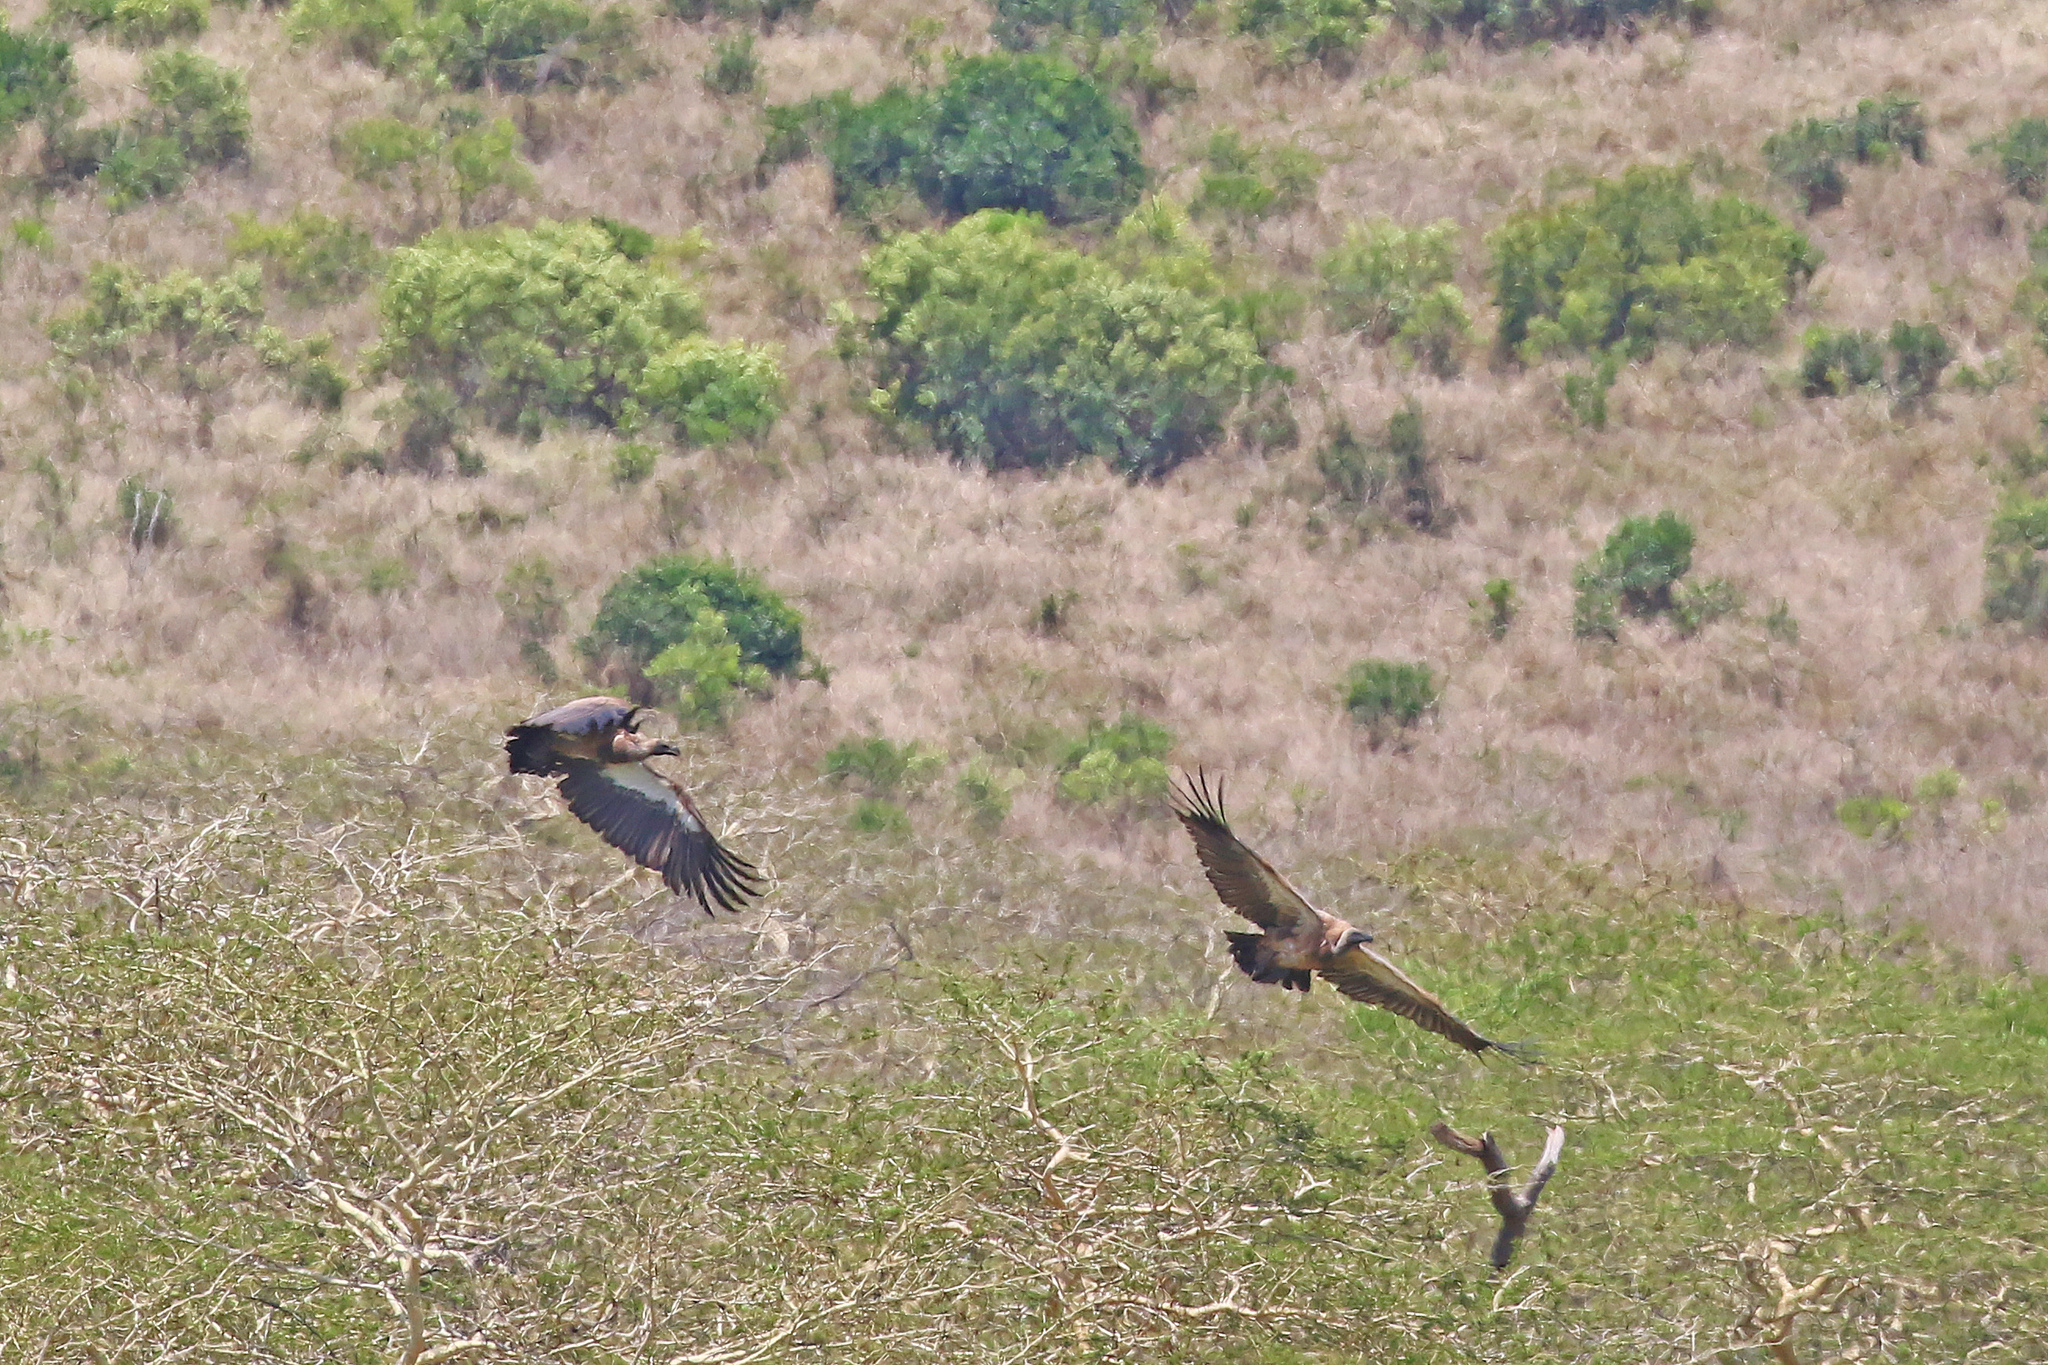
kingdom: Animalia
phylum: Chordata
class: Aves
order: Accipitriformes
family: Accipitridae
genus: Gyps
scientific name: Gyps africanus
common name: White-backed vulture
